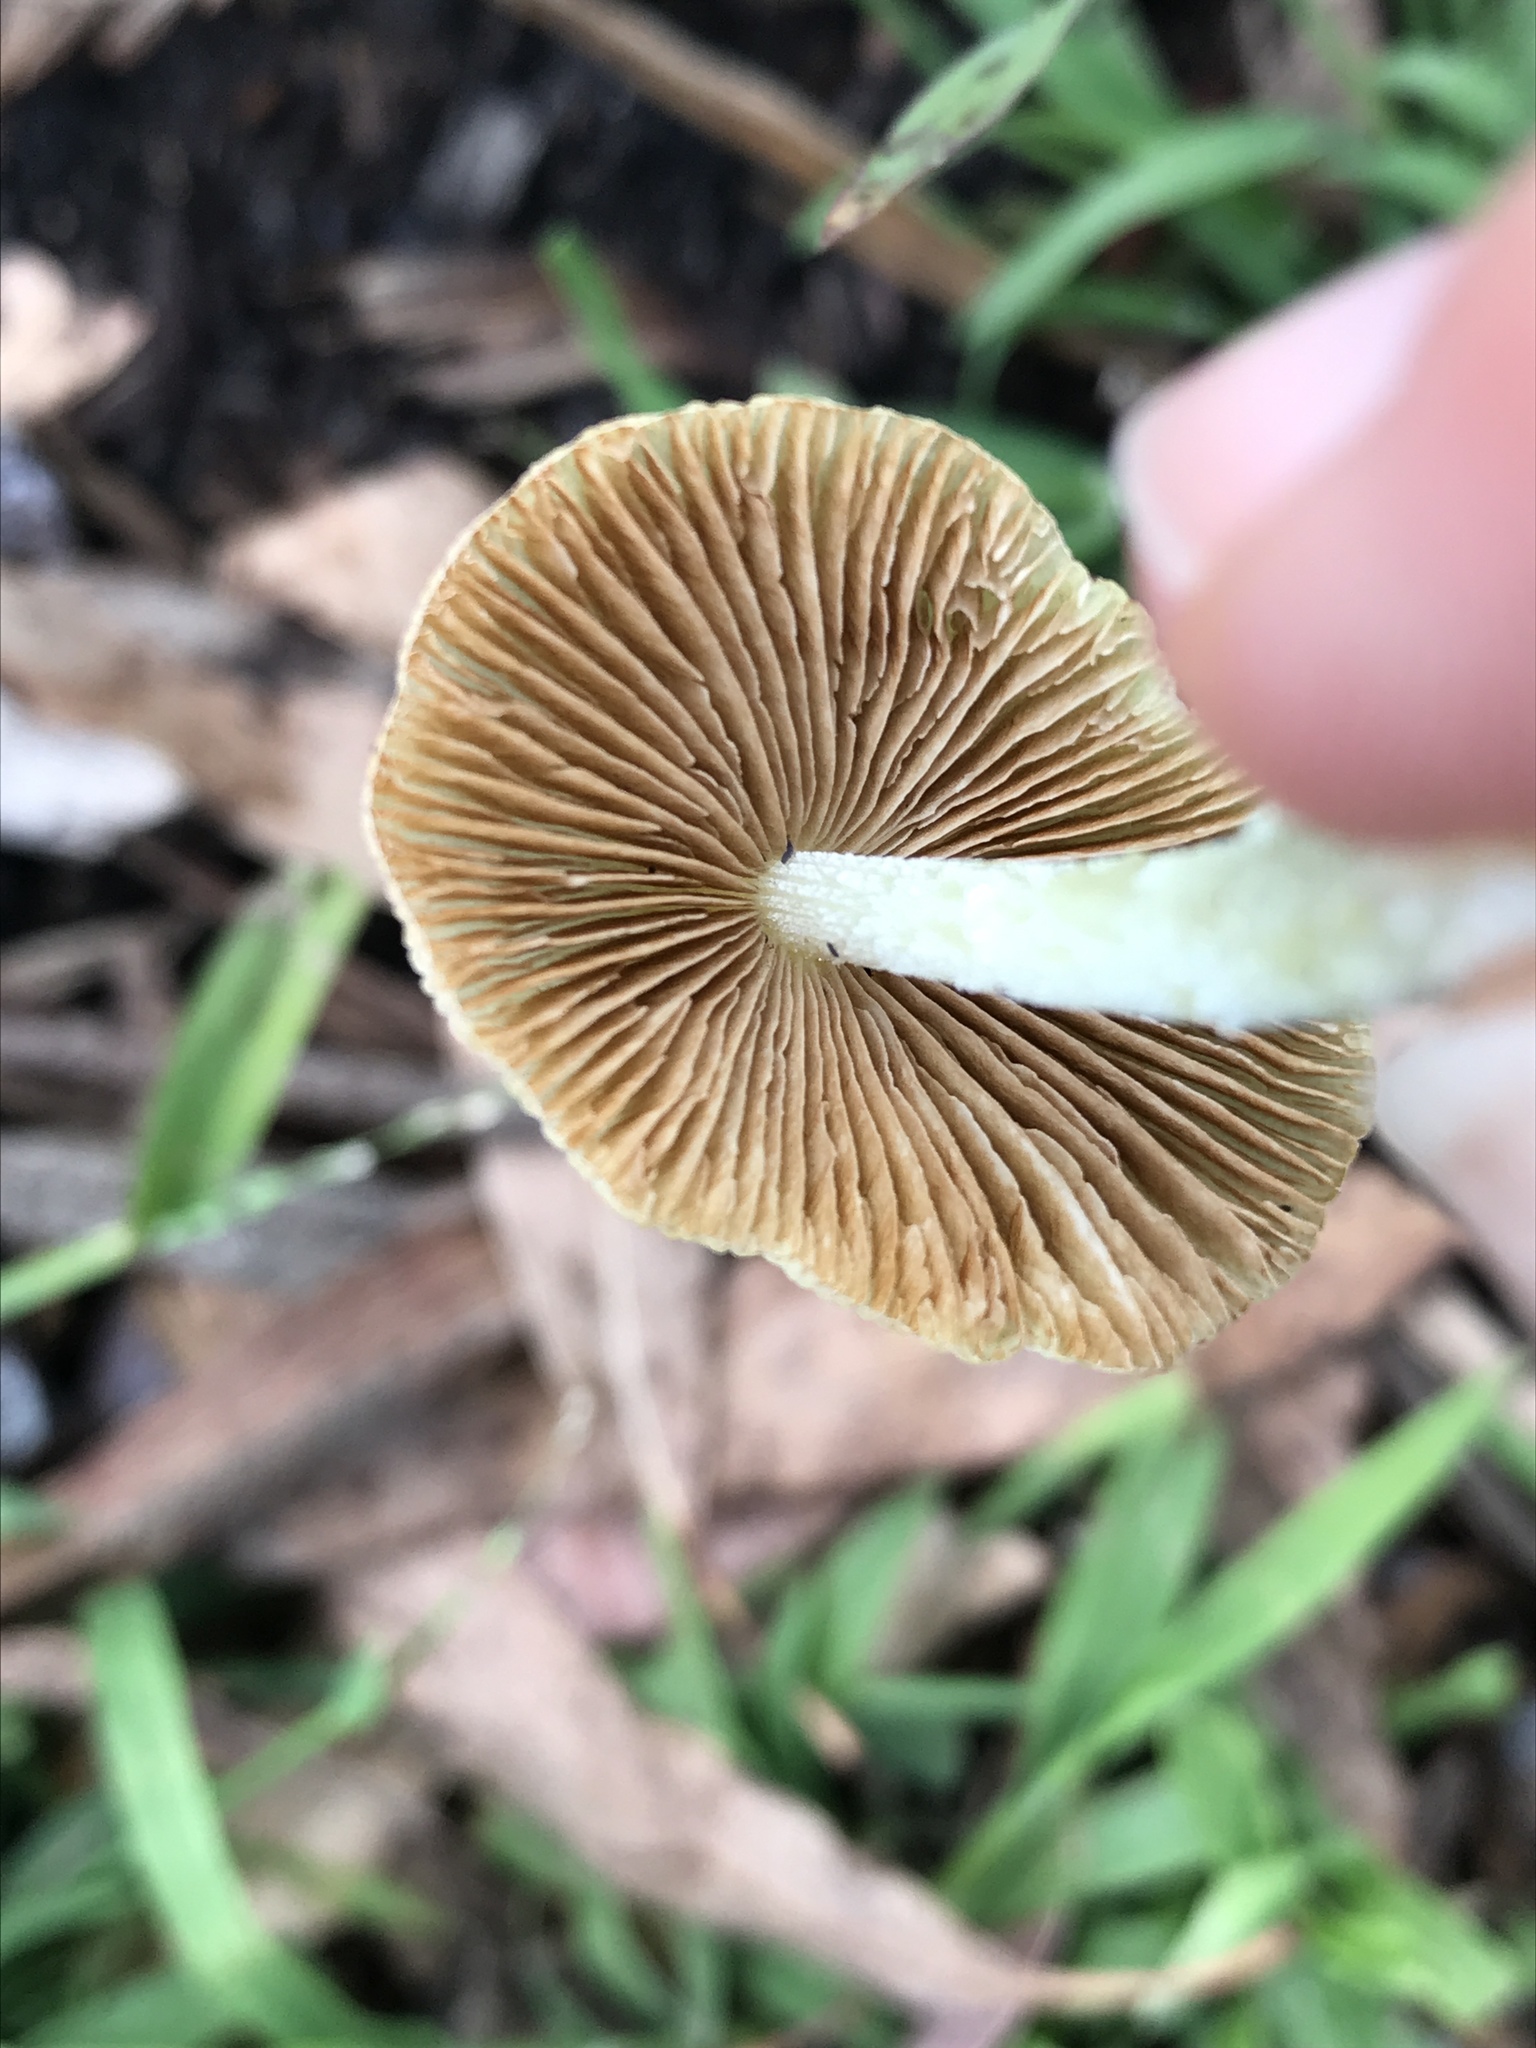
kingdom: Fungi
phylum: Basidiomycota
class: Agaricomycetes
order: Agaricales
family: Bolbitiaceae
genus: Bolbitius
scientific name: Bolbitius titubans
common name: Yellow fieldcap
